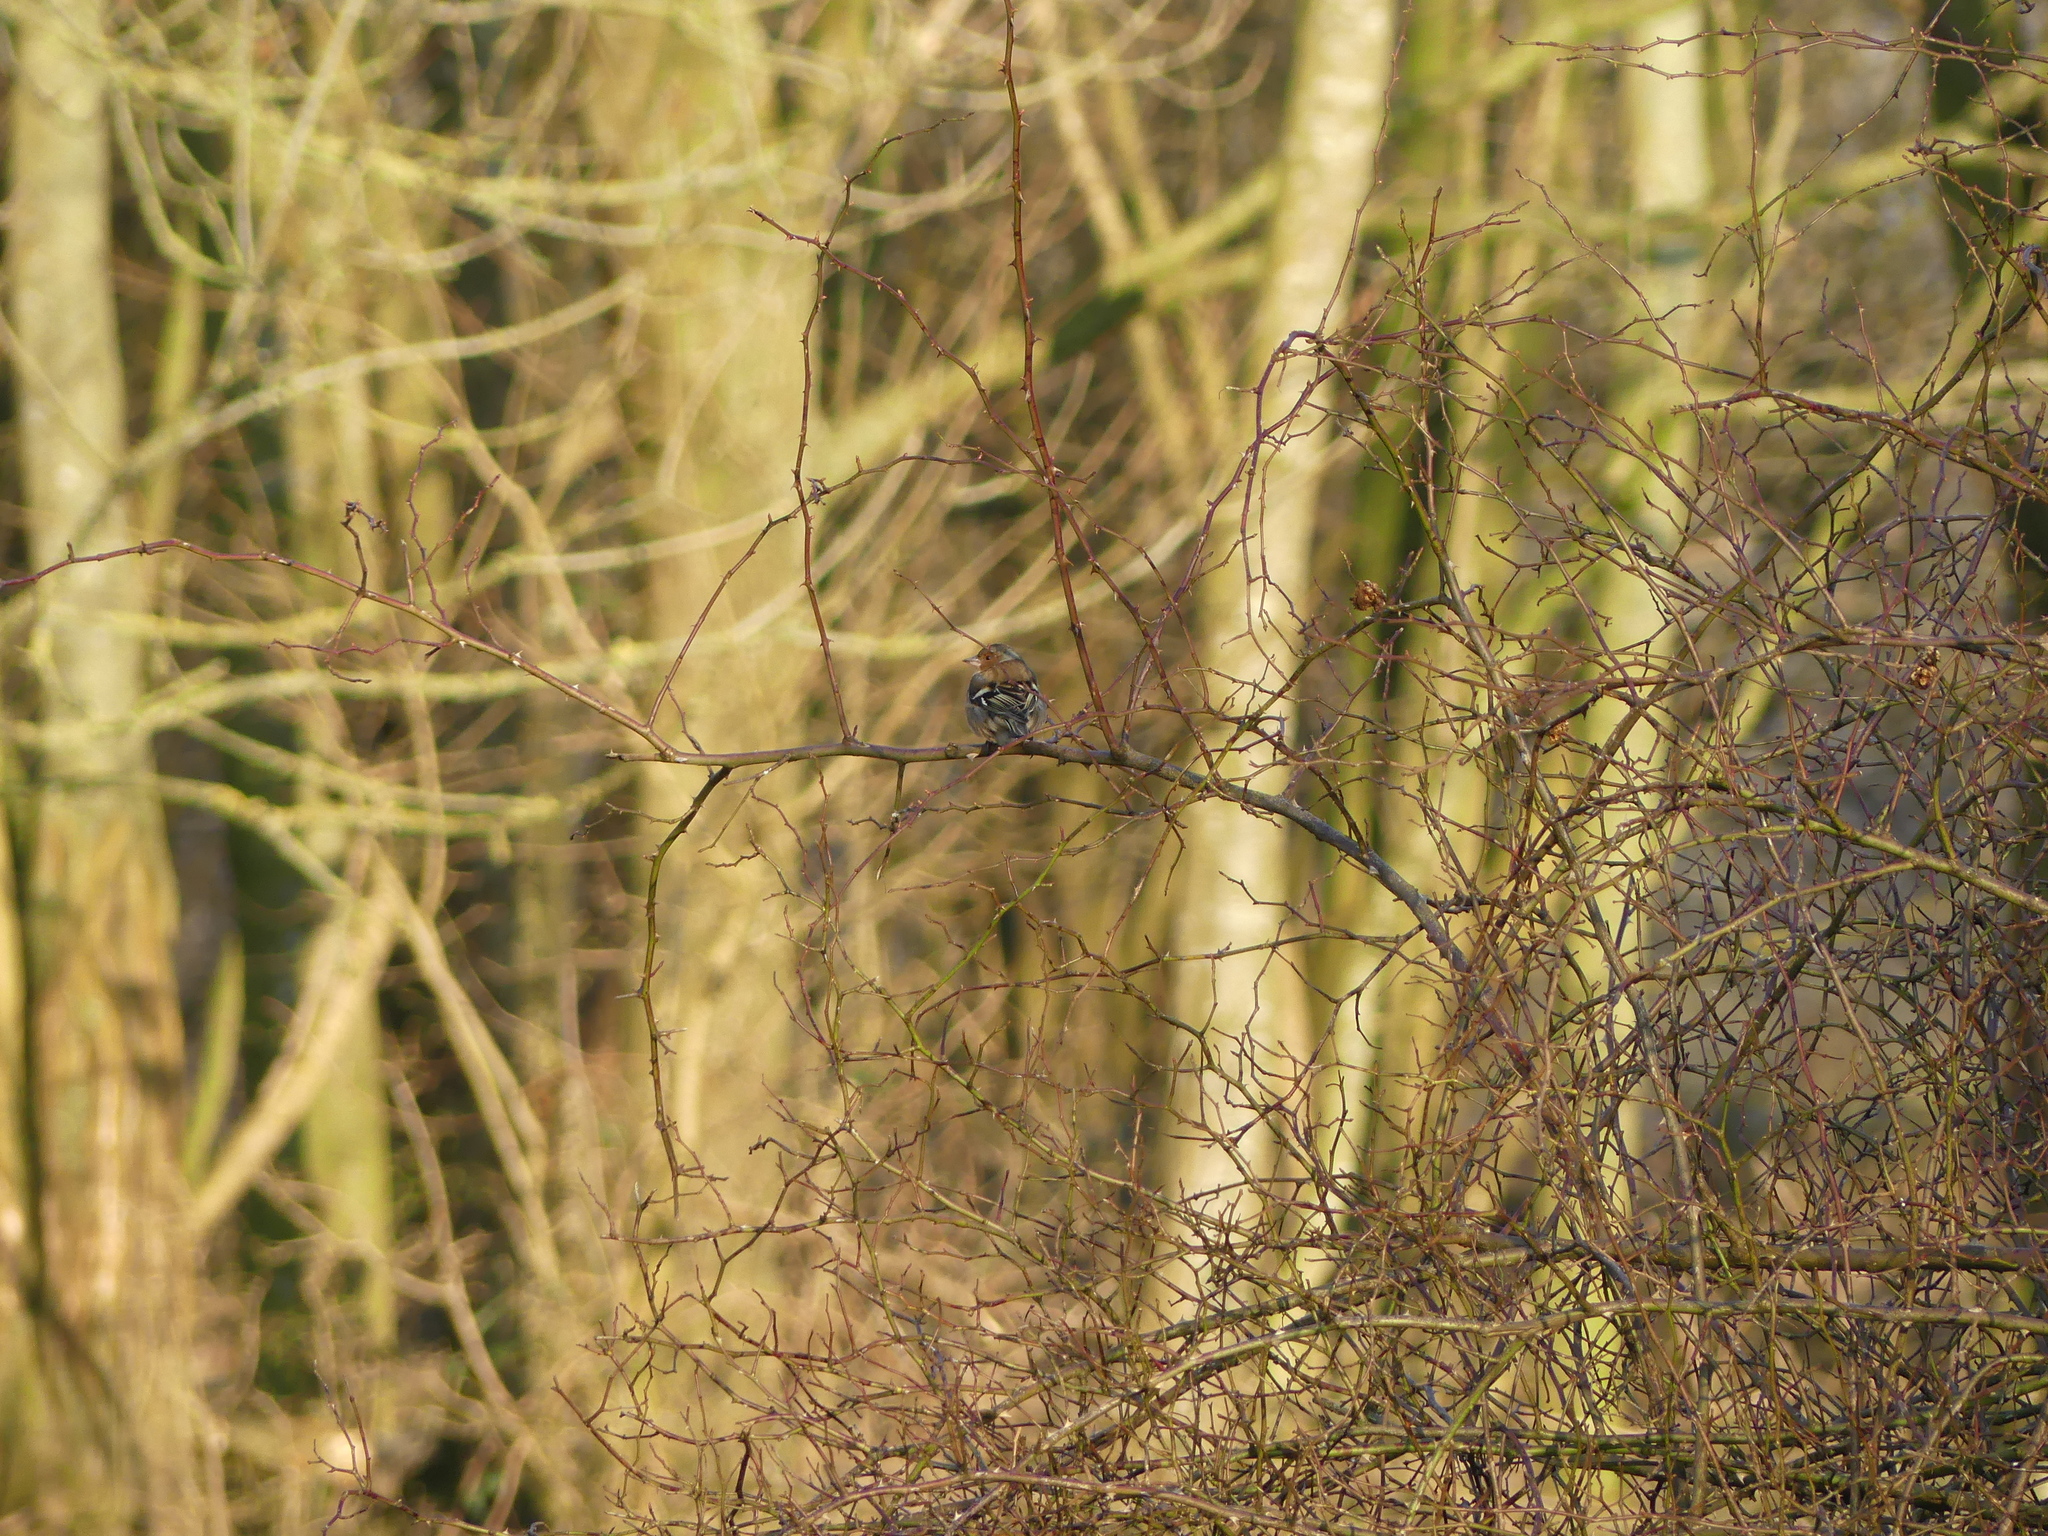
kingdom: Animalia
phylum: Chordata
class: Aves
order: Passeriformes
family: Fringillidae
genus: Fringilla
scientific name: Fringilla coelebs
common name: Common chaffinch
